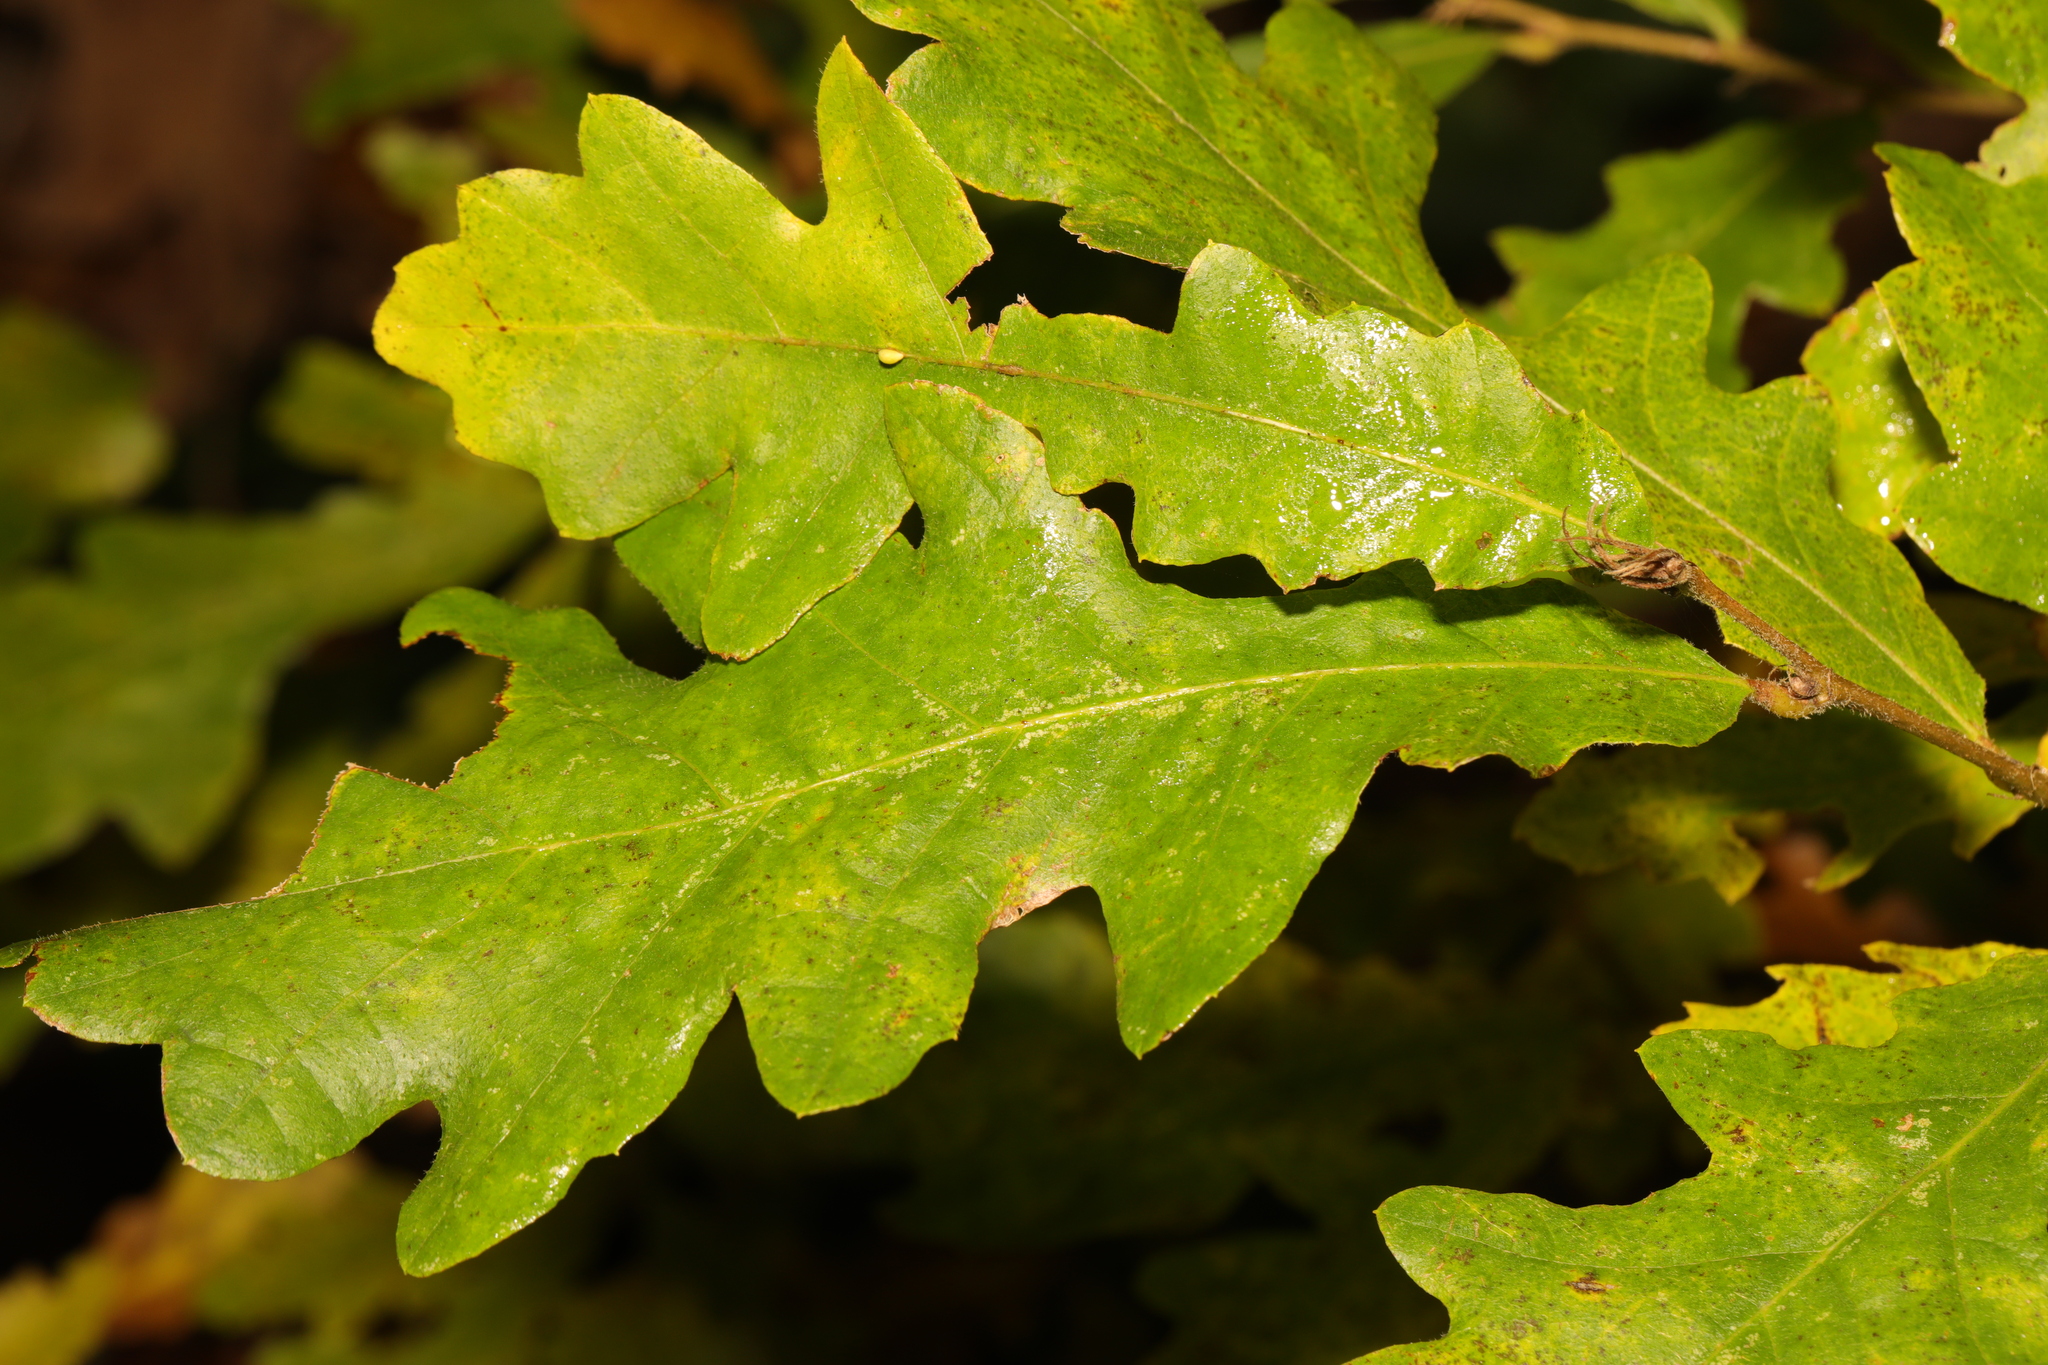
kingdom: Plantae
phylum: Tracheophyta
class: Magnoliopsida
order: Fagales
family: Fagaceae
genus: Quercus
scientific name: Quercus cerris
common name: Turkey oak
